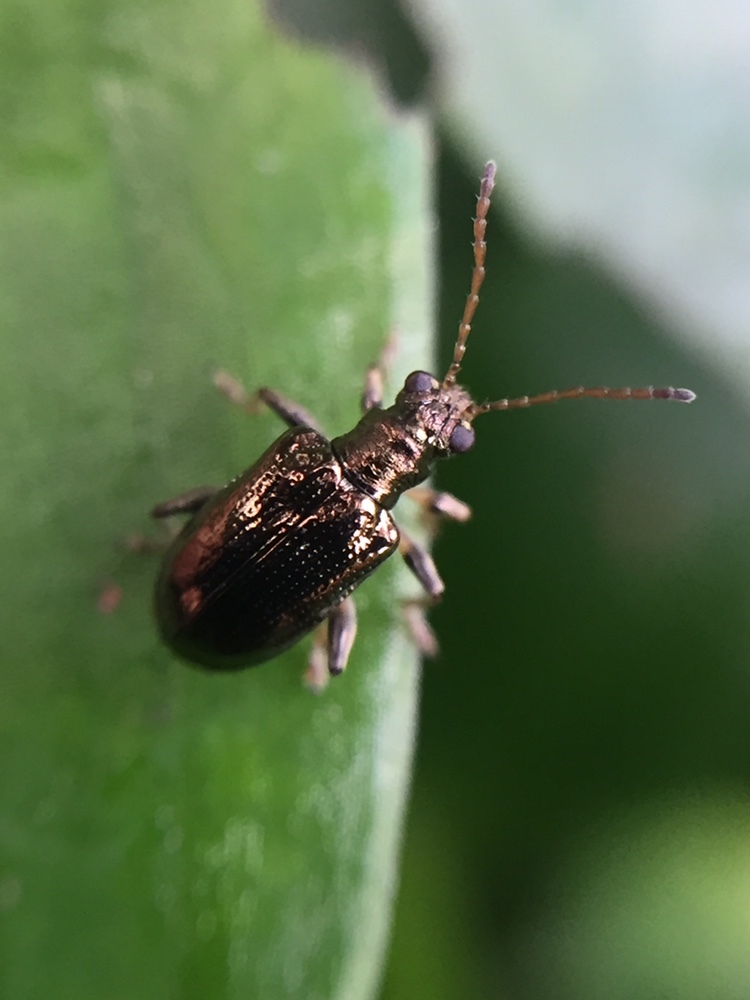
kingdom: Animalia
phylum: Arthropoda
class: Insecta
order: Coleoptera
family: Chrysomelidae
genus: Neolema
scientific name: Neolema ogloblini
